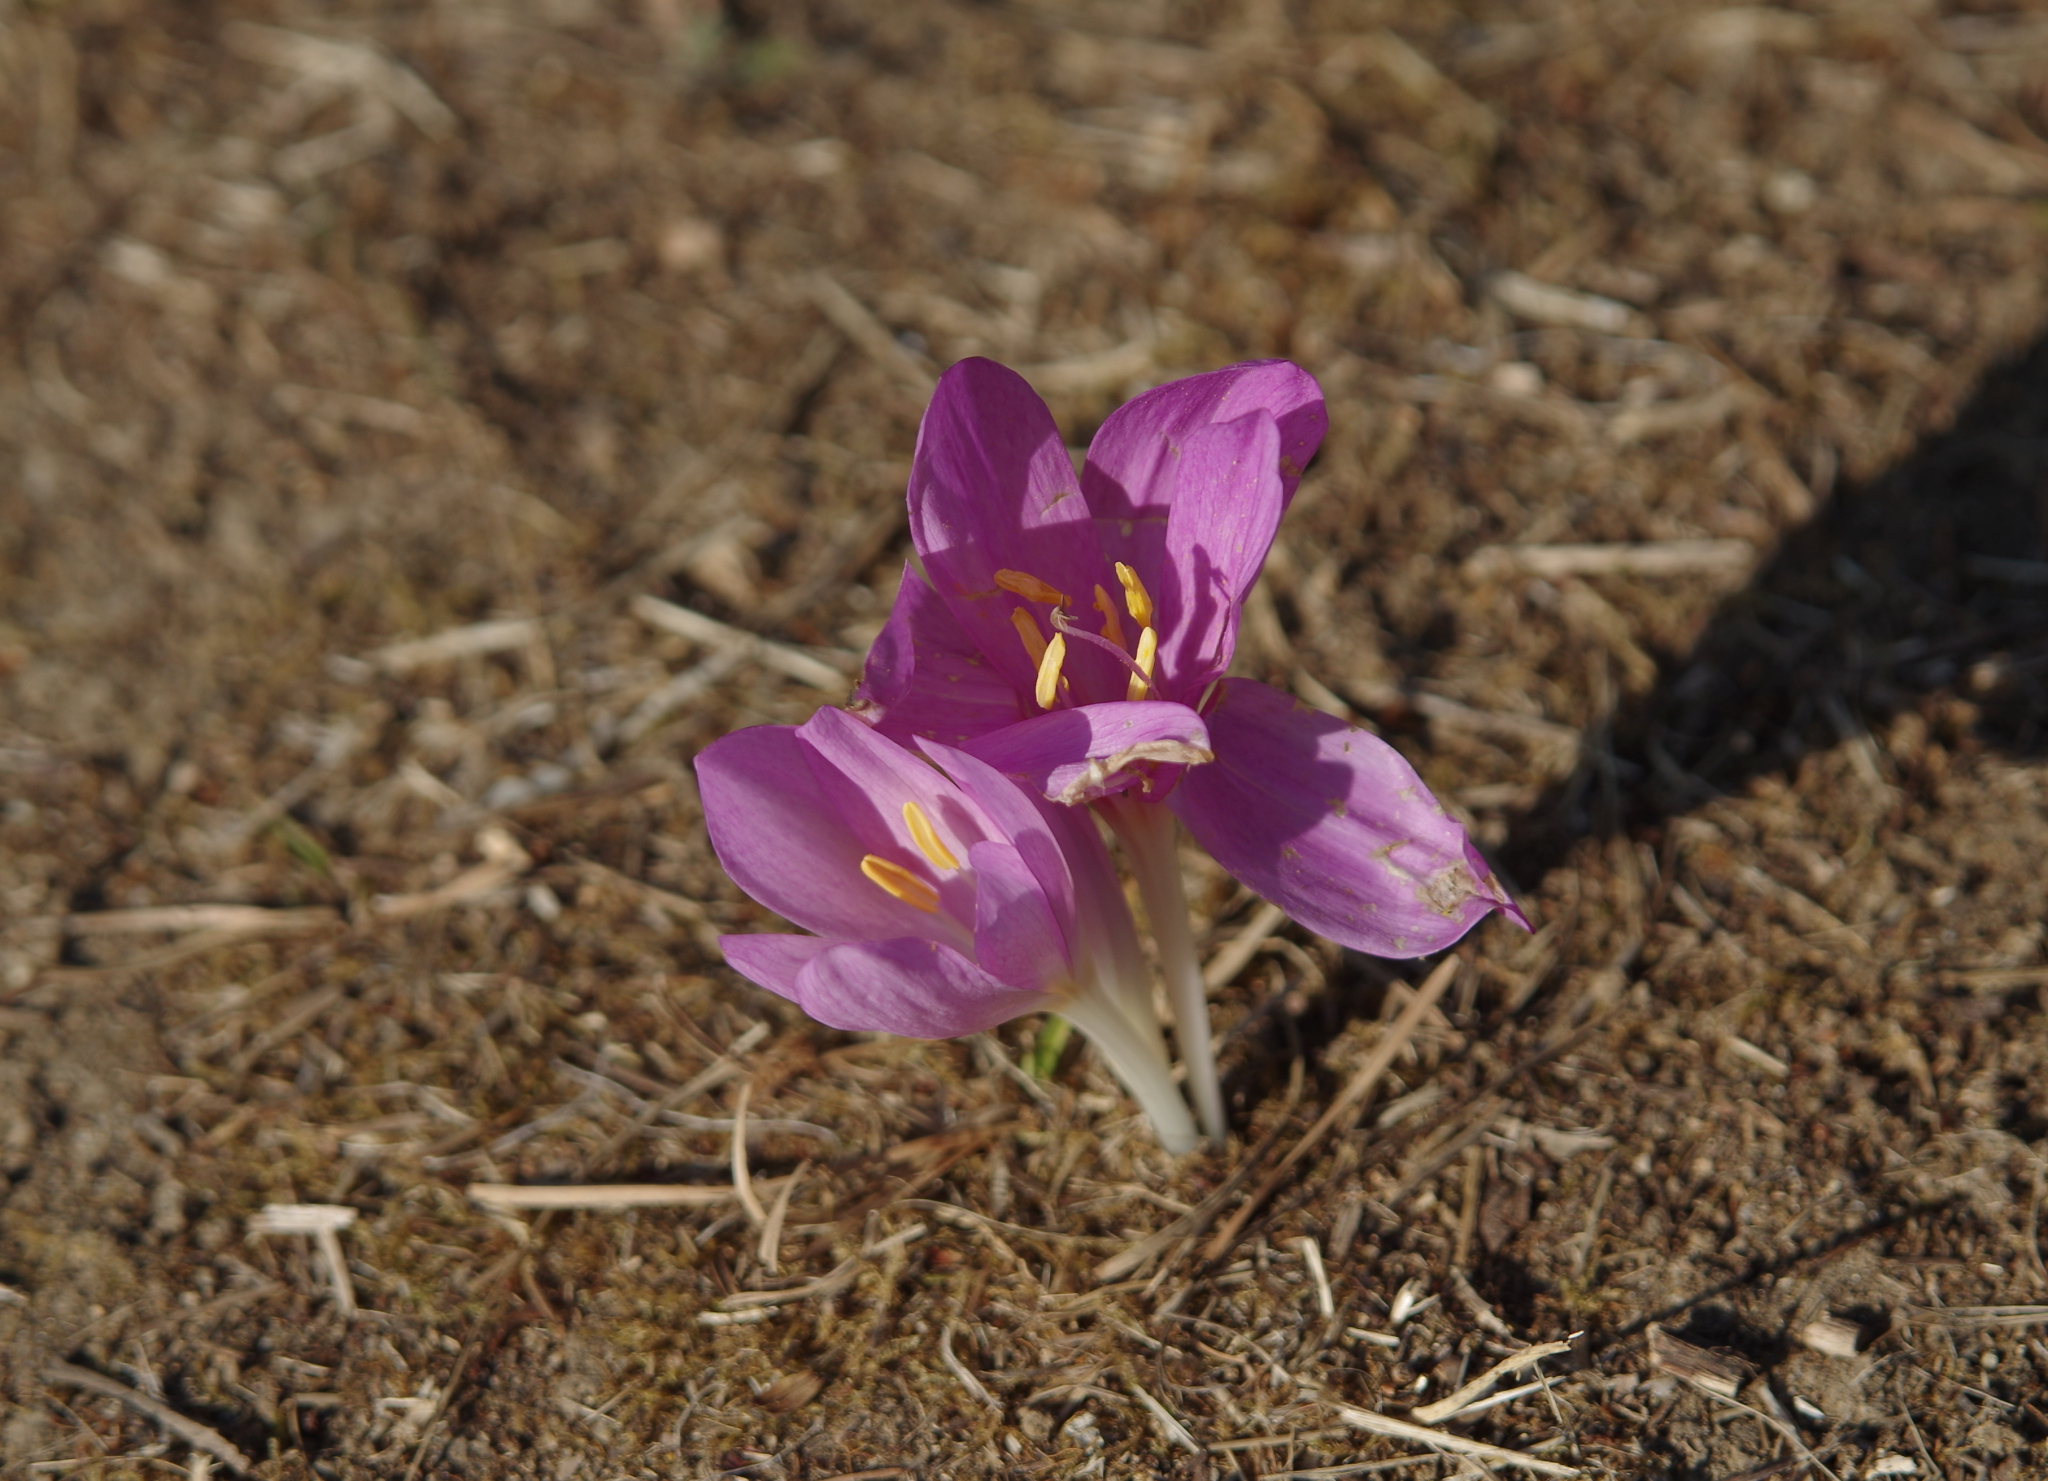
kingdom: Plantae
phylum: Tracheophyta
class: Liliopsida
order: Liliales
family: Colchicaceae
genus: Colchicum
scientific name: Colchicum autumnale
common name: Autumn crocus
